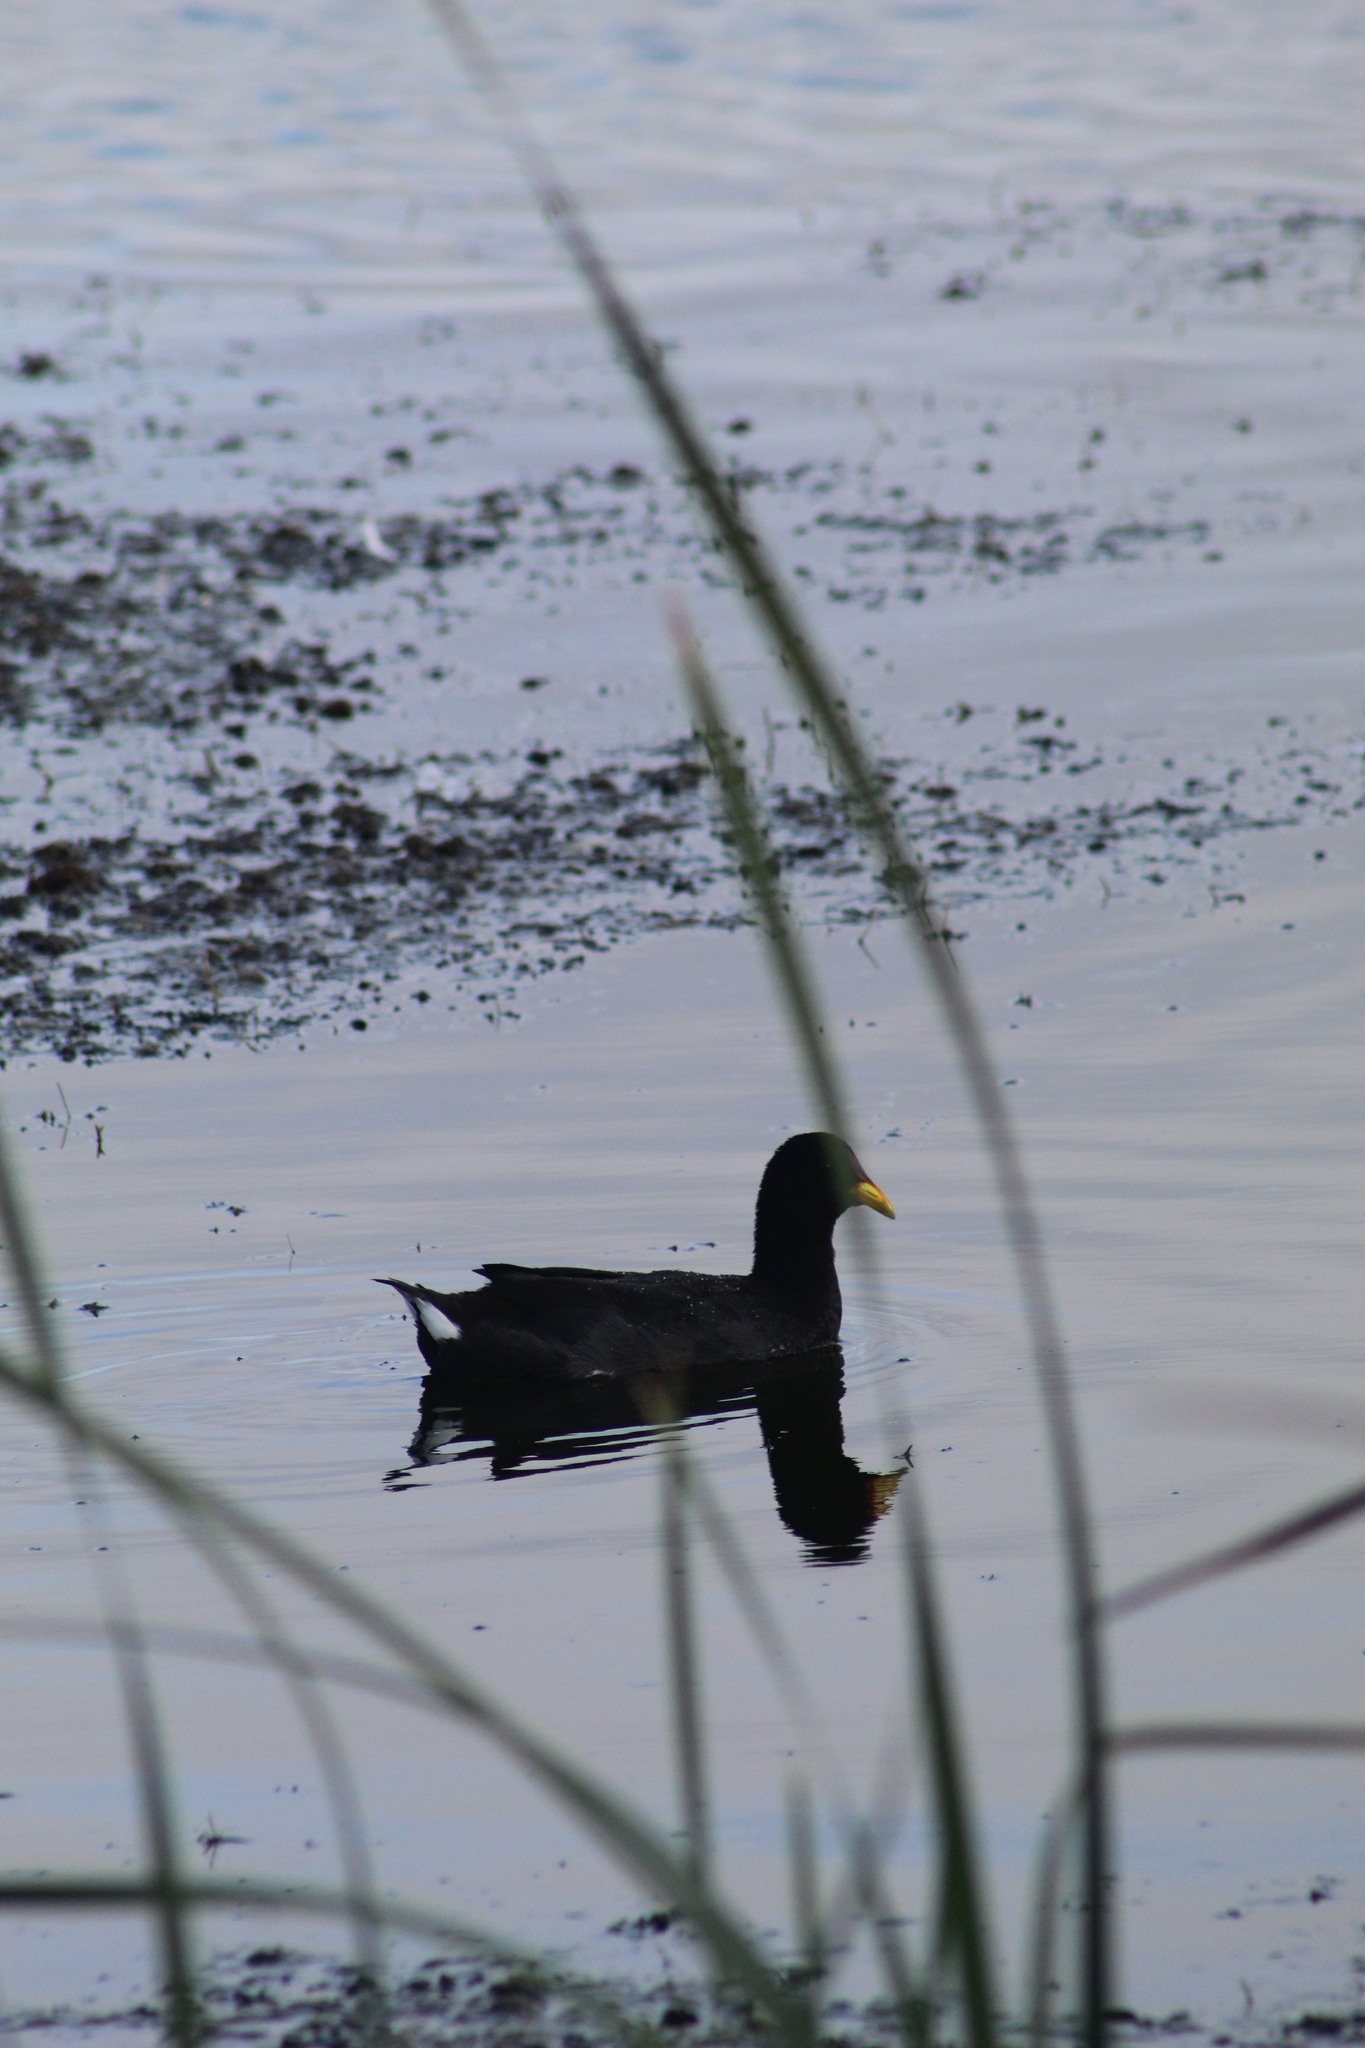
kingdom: Animalia
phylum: Chordata
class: Aves
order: Gruiformes
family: Rallidae
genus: Fulica
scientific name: Fulica rufifrons
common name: Red-fronted coot
